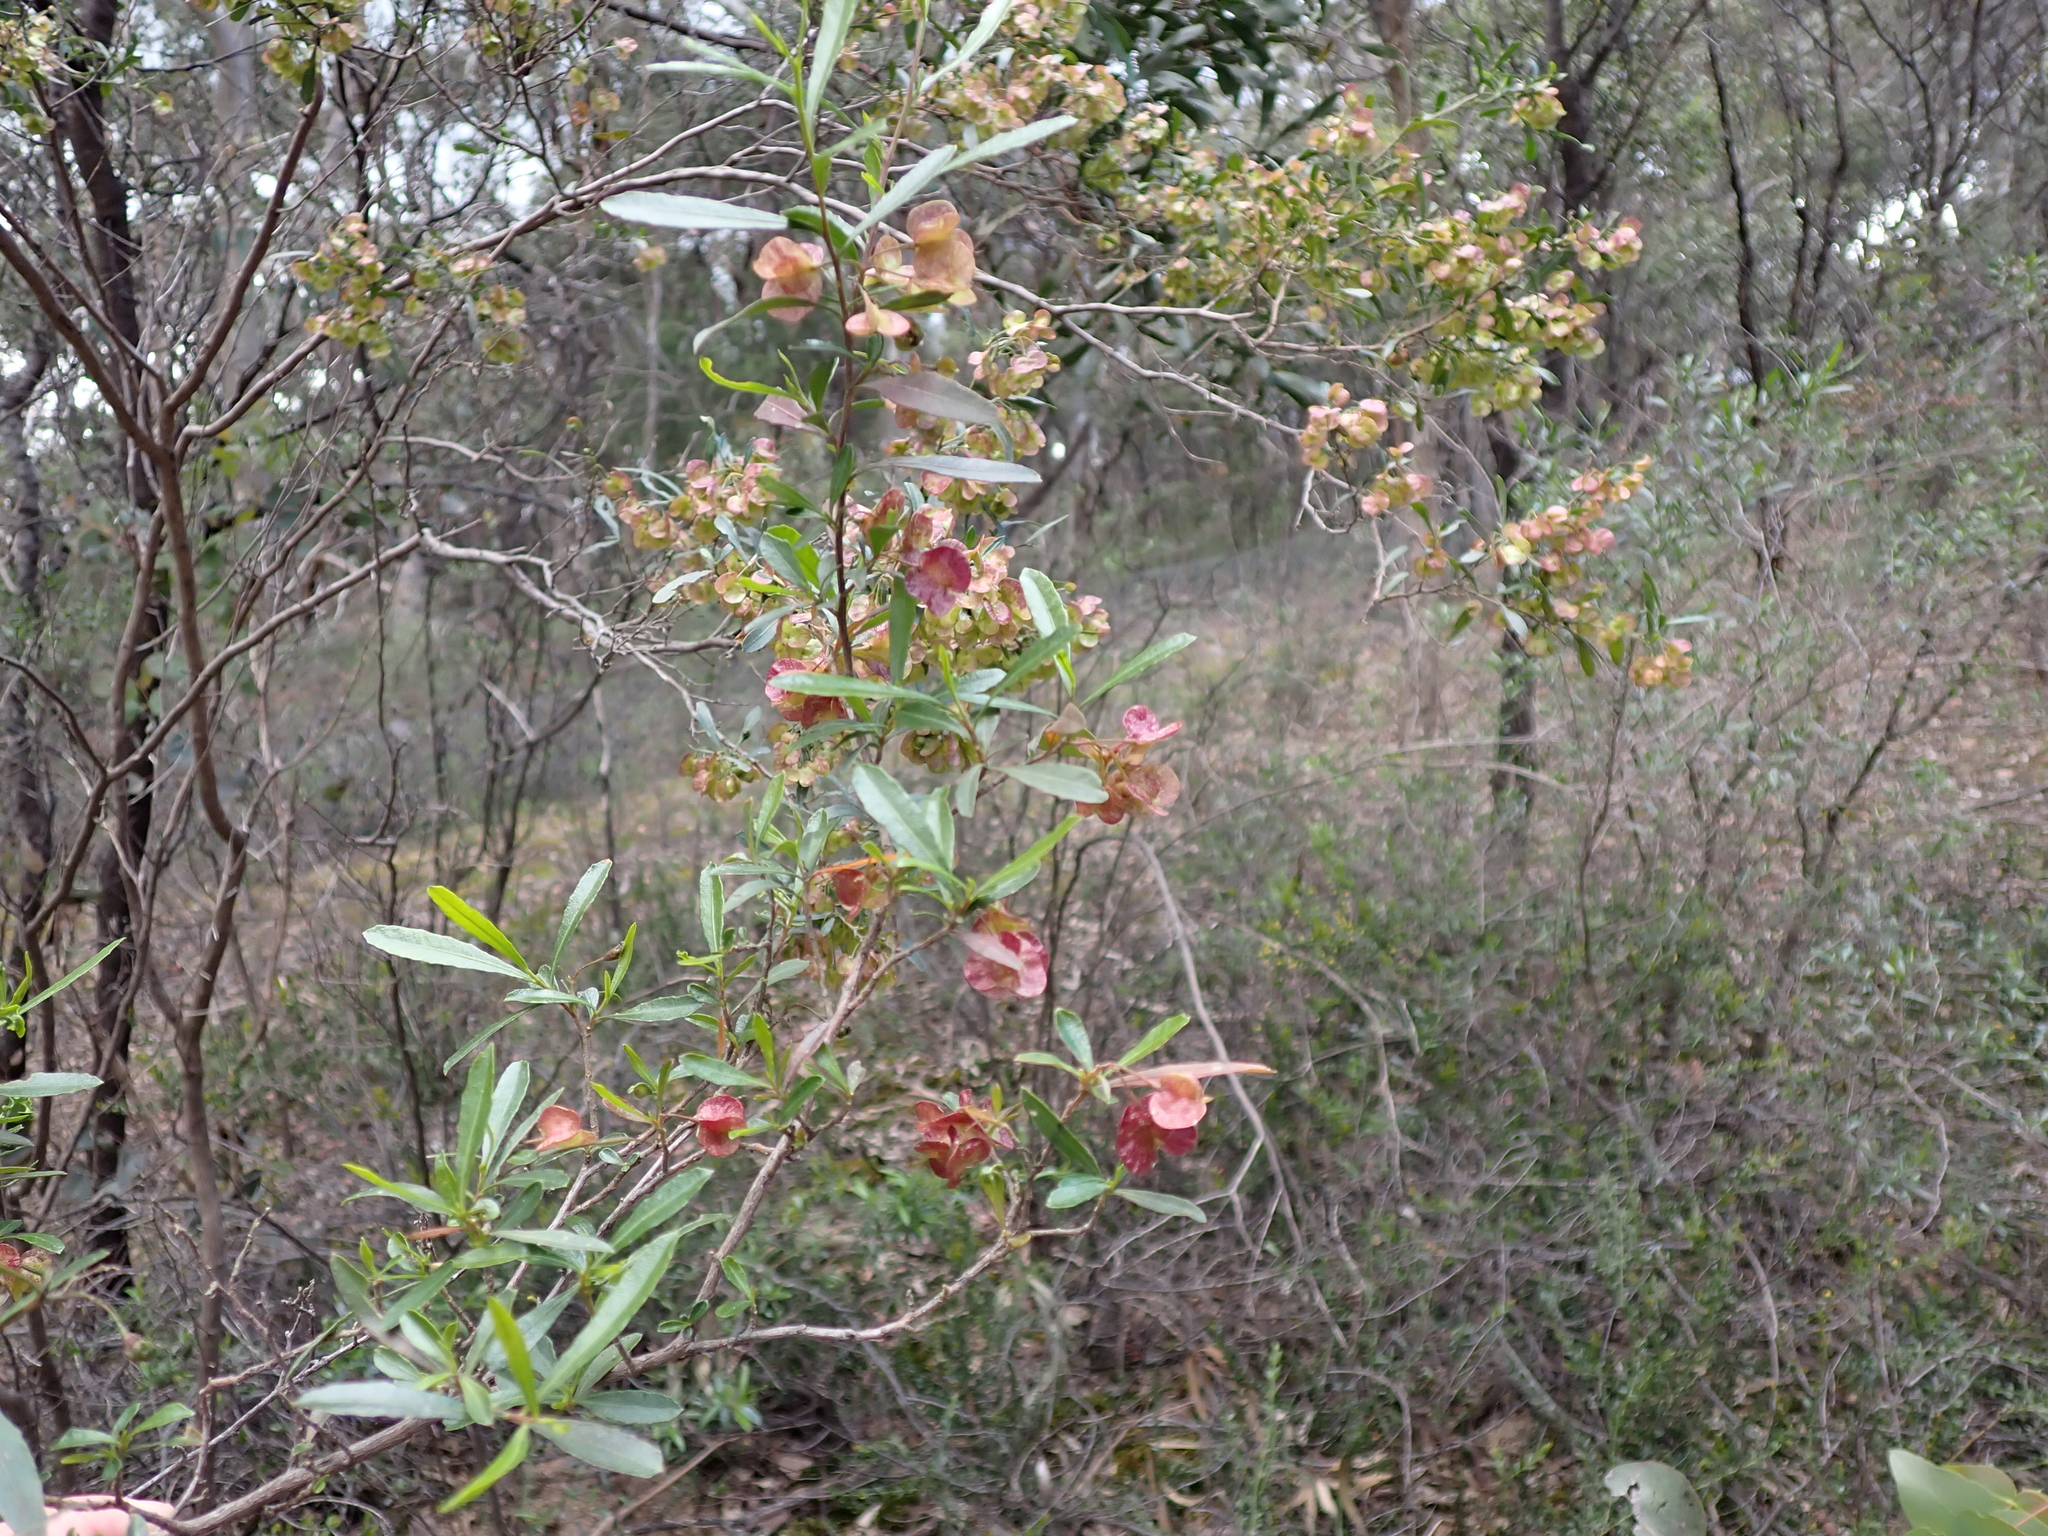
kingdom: Plantae
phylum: Tracheophyta
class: Magnoliopsida
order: Sapindales
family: Sapindaceae
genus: Dodonaea
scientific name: Dodonaea viscosa
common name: Hopbush
